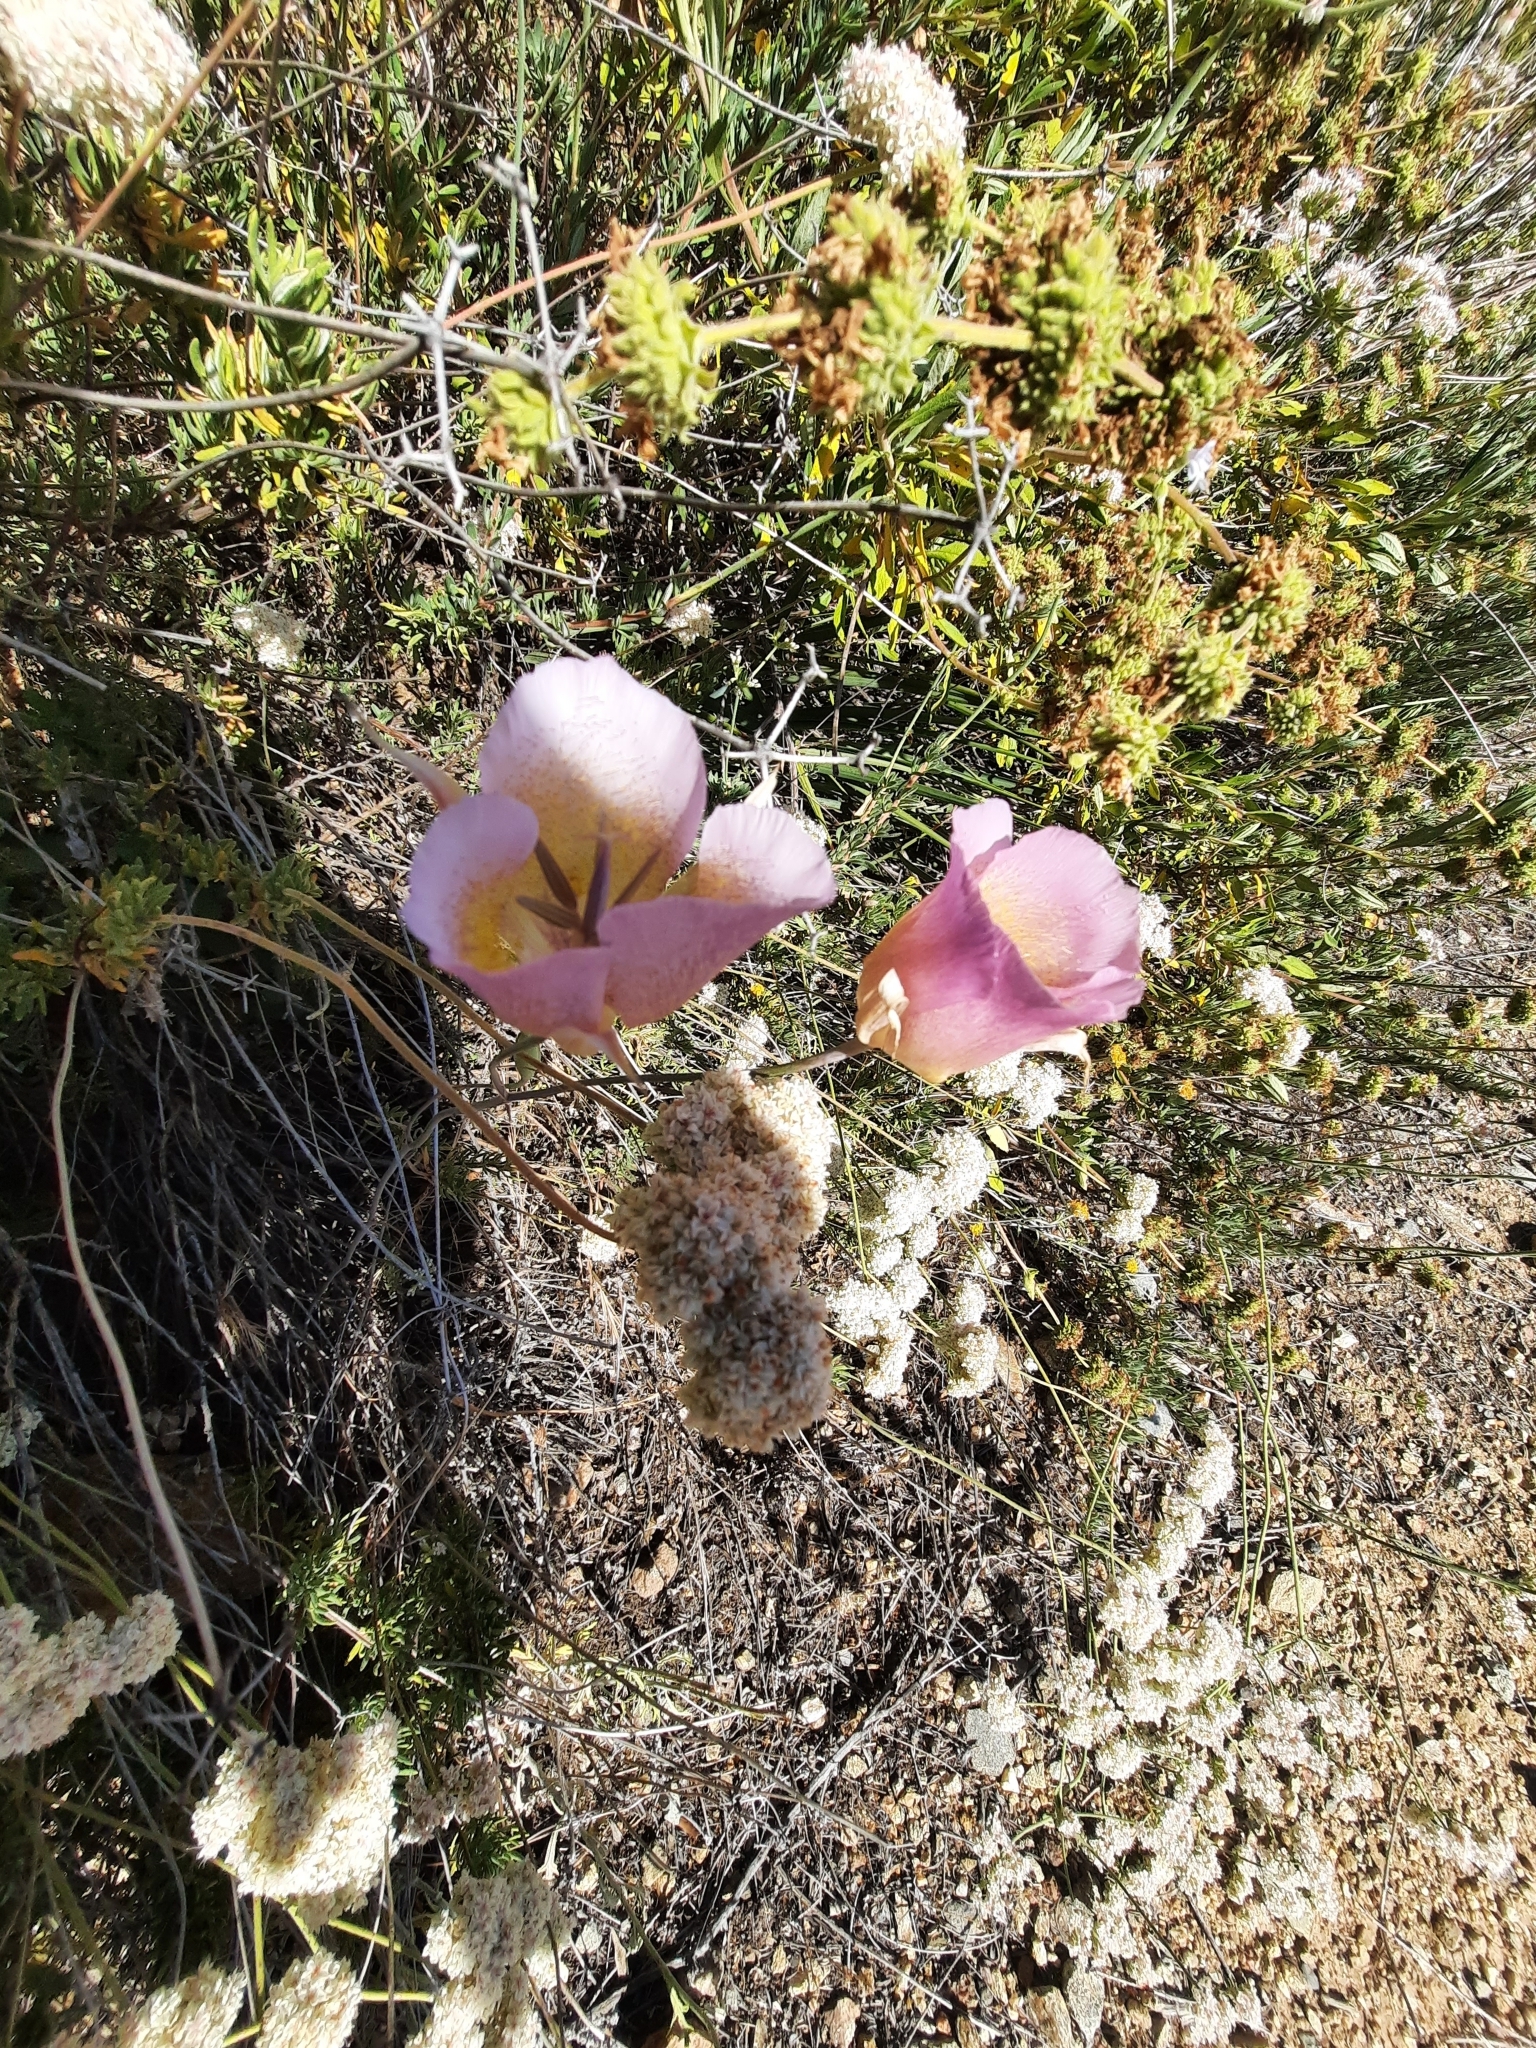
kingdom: Plantae
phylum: Tracheophyta
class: Liliopsida
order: Liliales
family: Liliaceae
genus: Calochortus
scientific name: Calochortus plummerae
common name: Plummer's mariposa-lily
